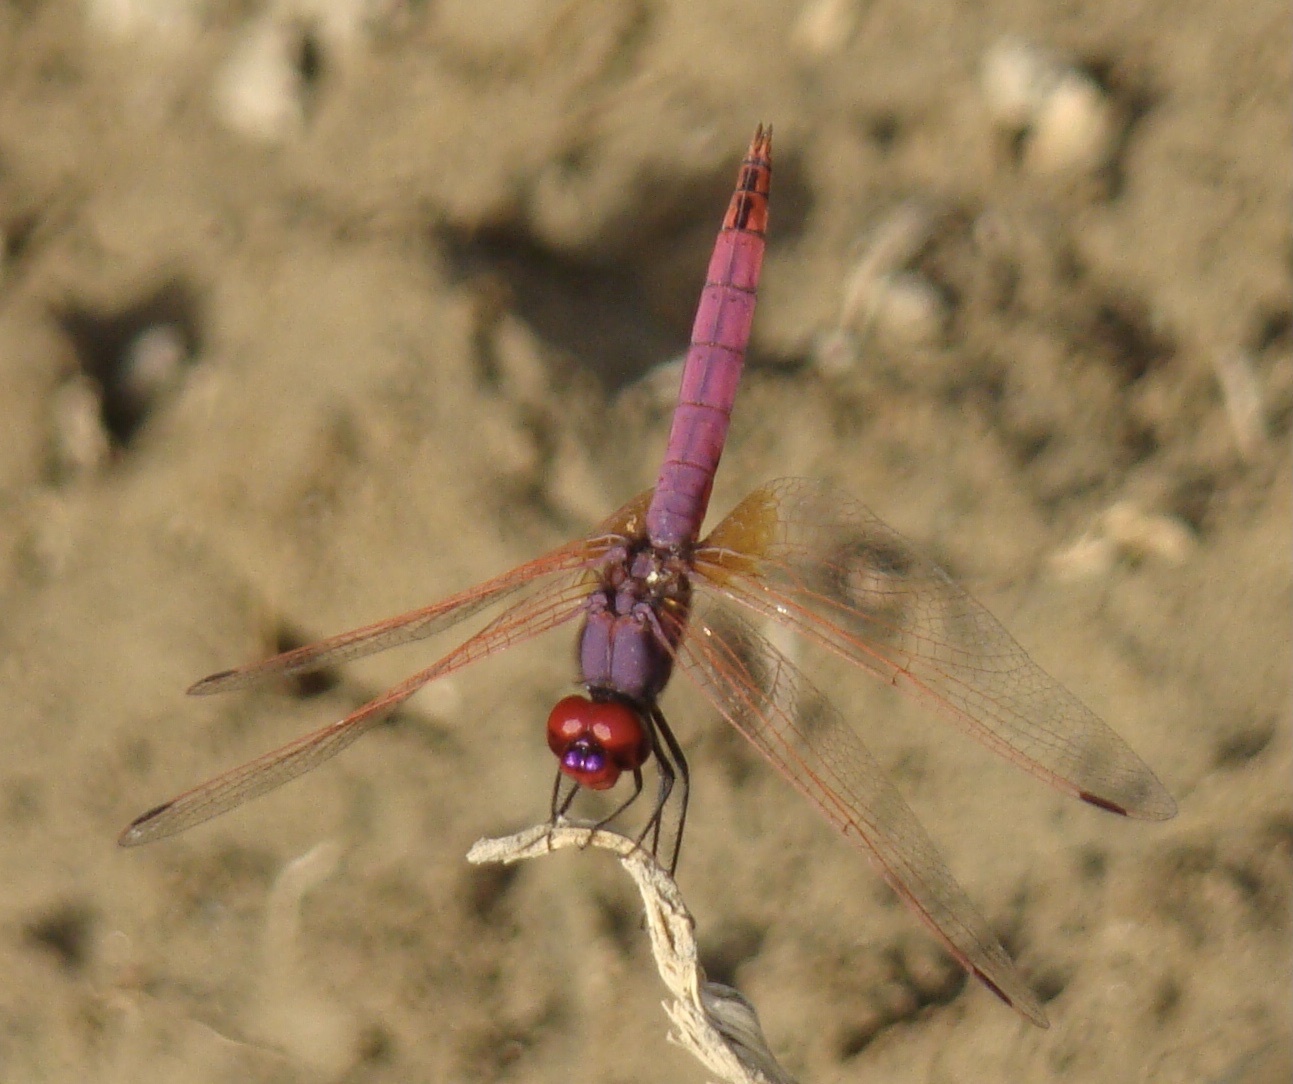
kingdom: Animalia
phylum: Arthropoda
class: Insecta
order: Odonata
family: Libellulidae
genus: Trithemis
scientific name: Trithemis annulata
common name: Violet dropwing
